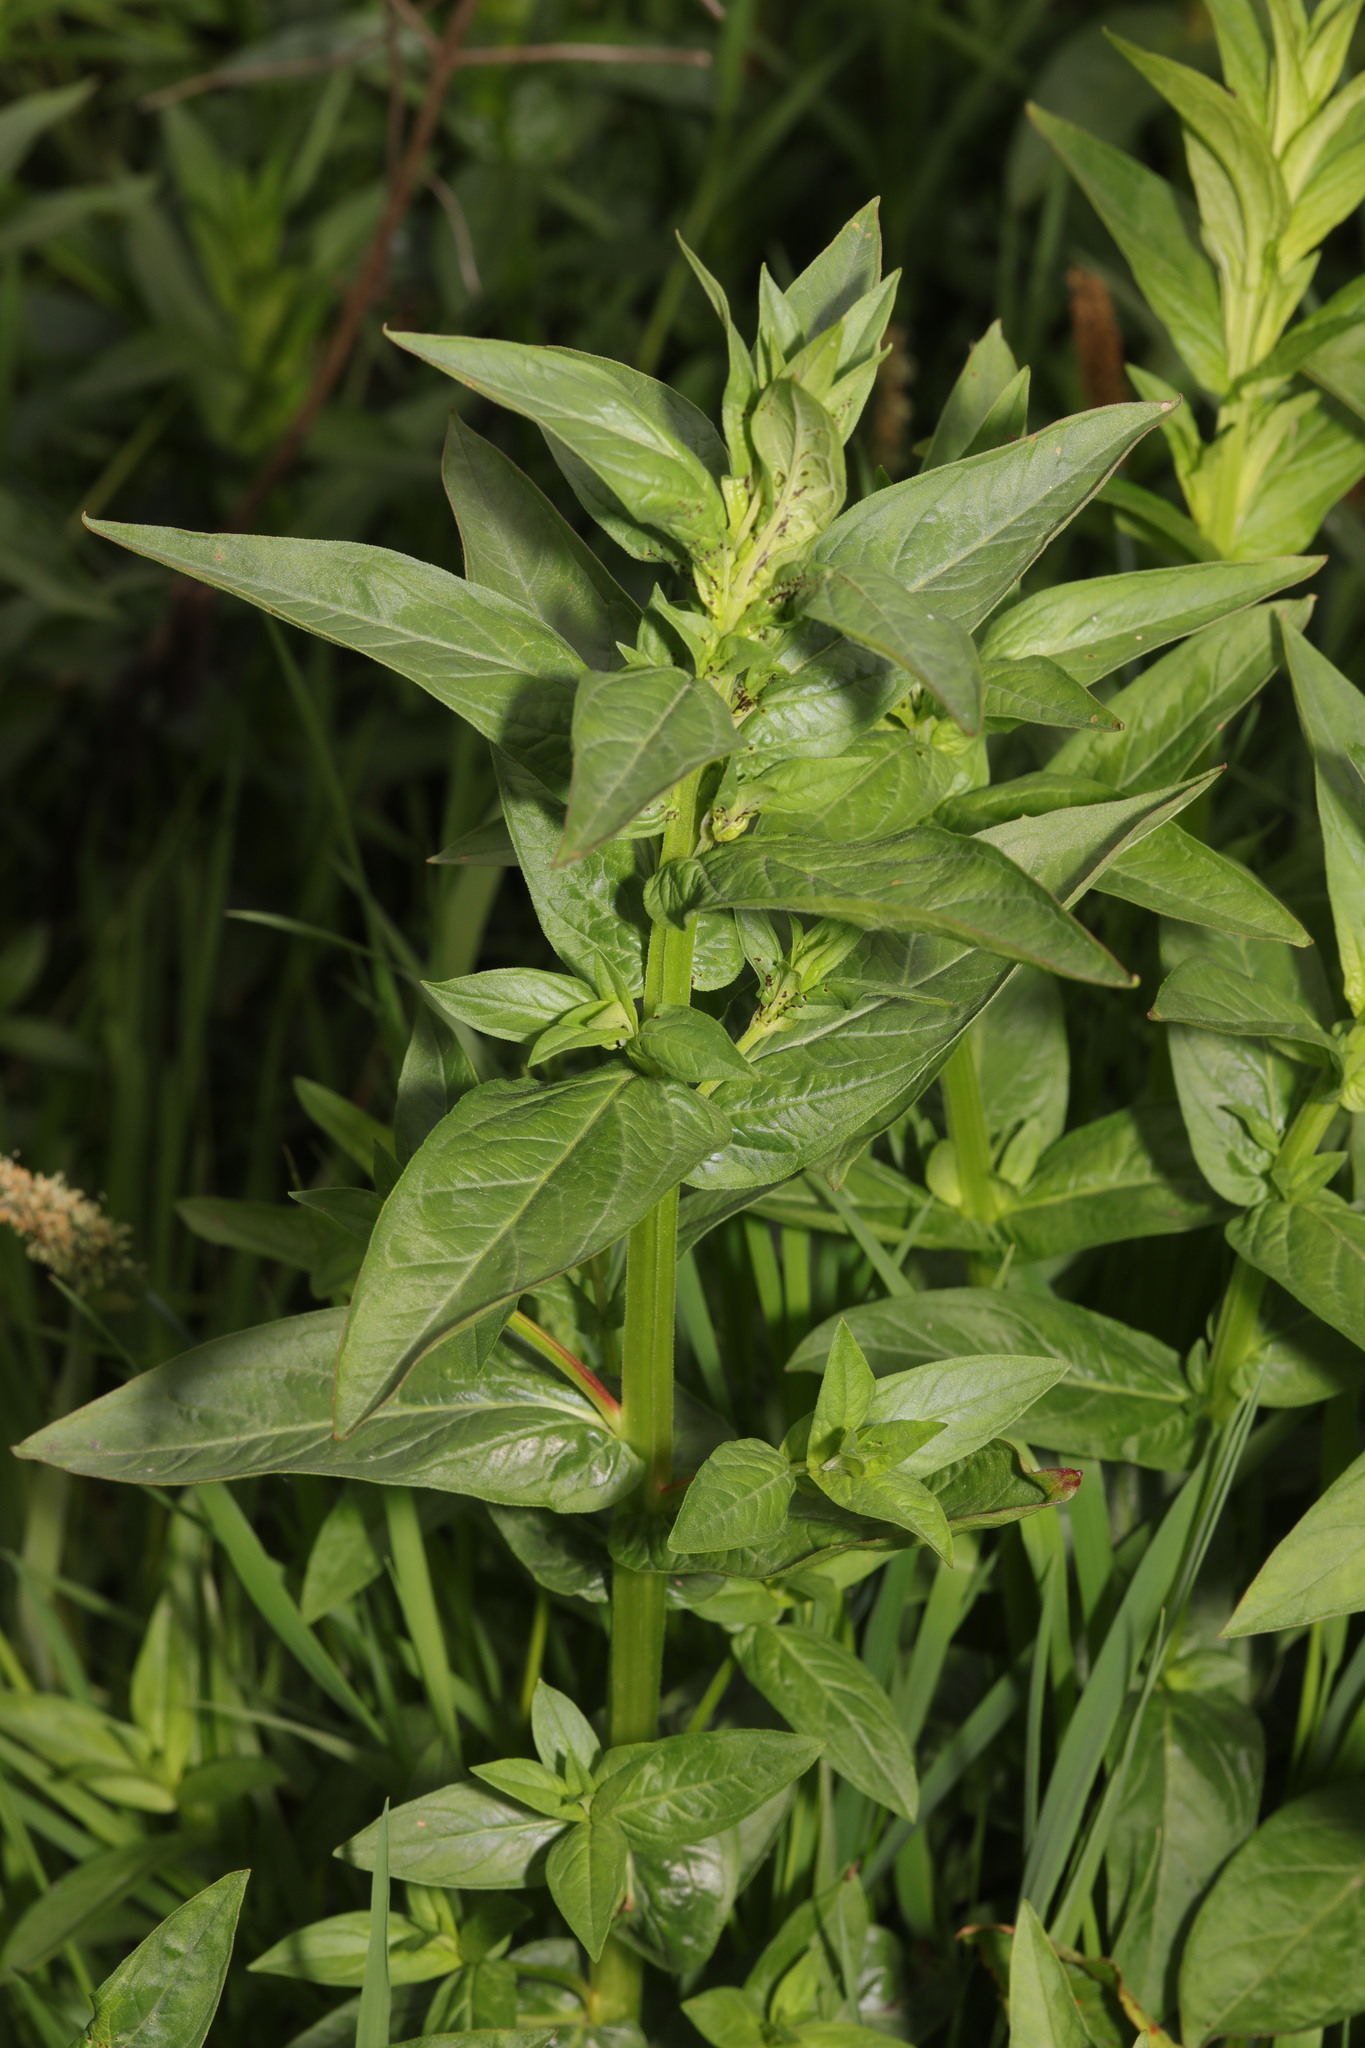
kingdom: Plantae
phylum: Tracheophyta
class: Magnoliopsida
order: Myrtales
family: Lythraceae
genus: Lythrum
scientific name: Lythrum salicaria
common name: Purple loosestrife
